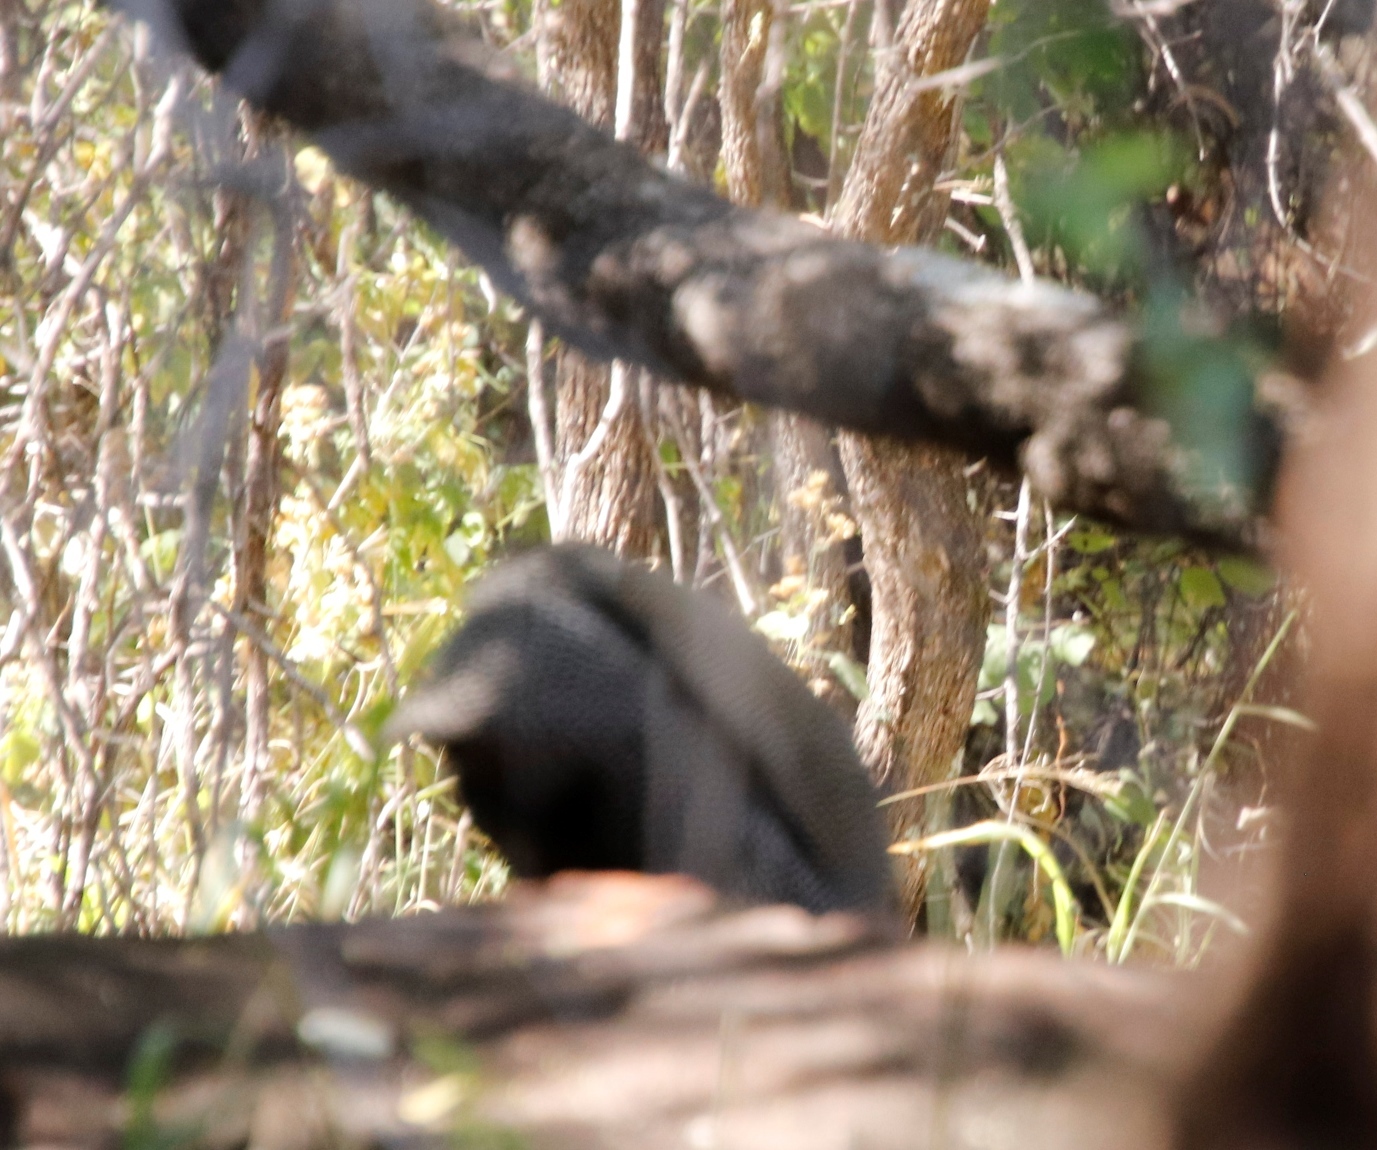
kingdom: Animalia
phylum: Chordata
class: Aves
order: Galliformes
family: Numididae
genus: Numida
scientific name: Numida meleagris
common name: Helmeted guineafowl
